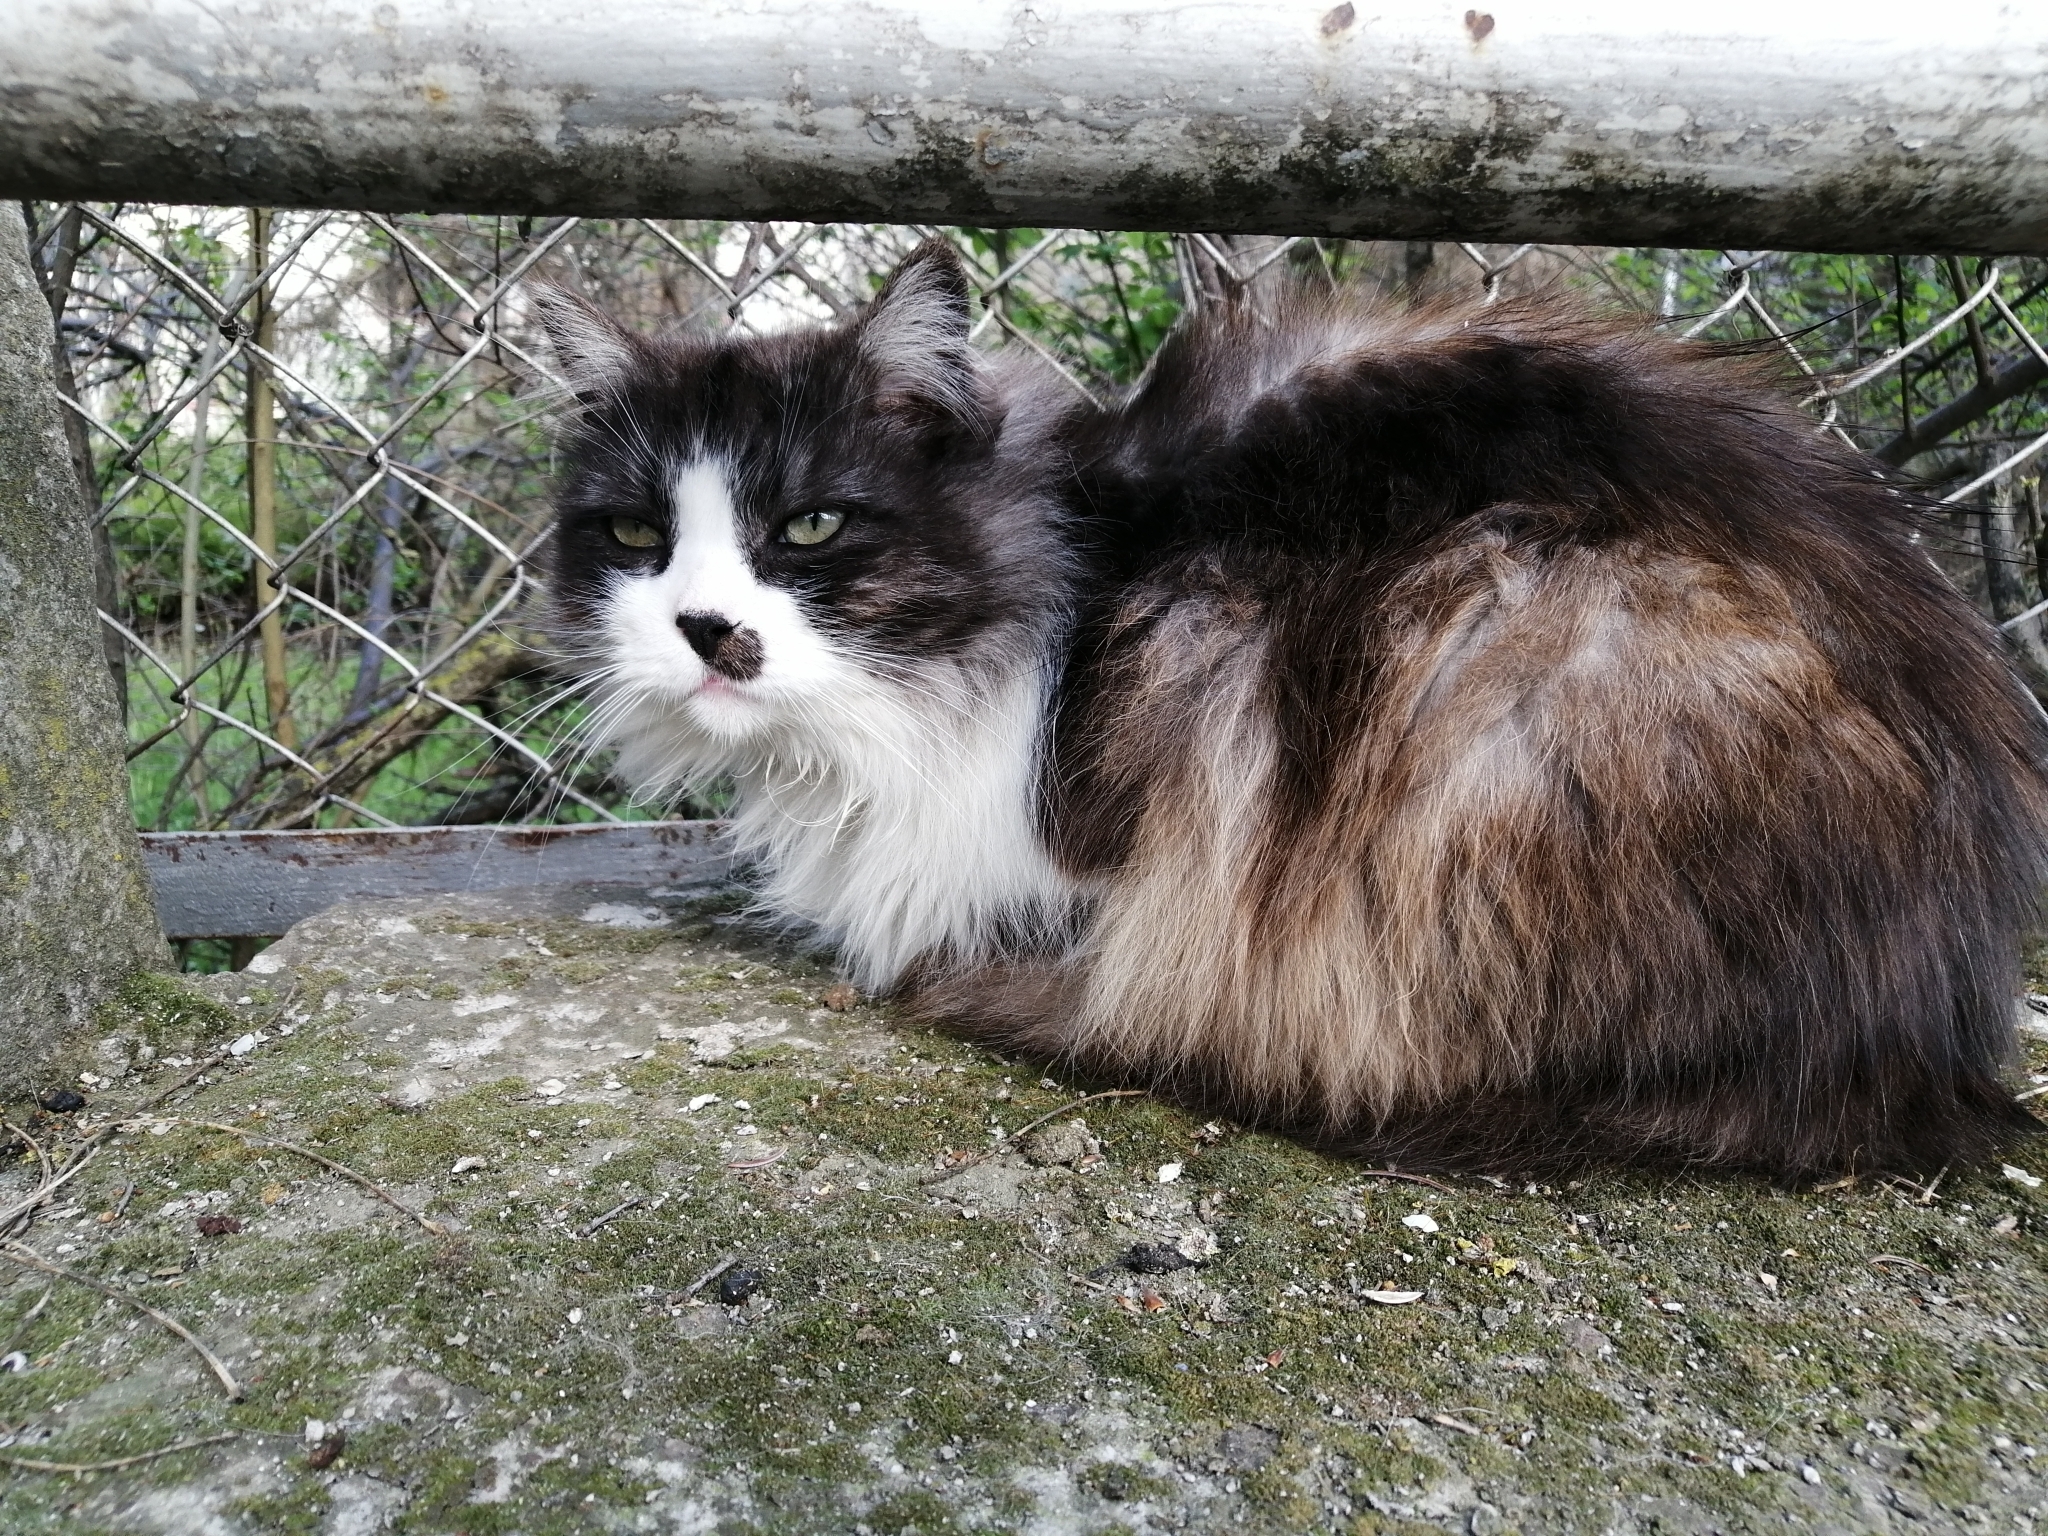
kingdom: Animalia
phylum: Chordata
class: Mammalia
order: Carnivora
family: Felidae
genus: Felis
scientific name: Felis catus
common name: Domestic cat
